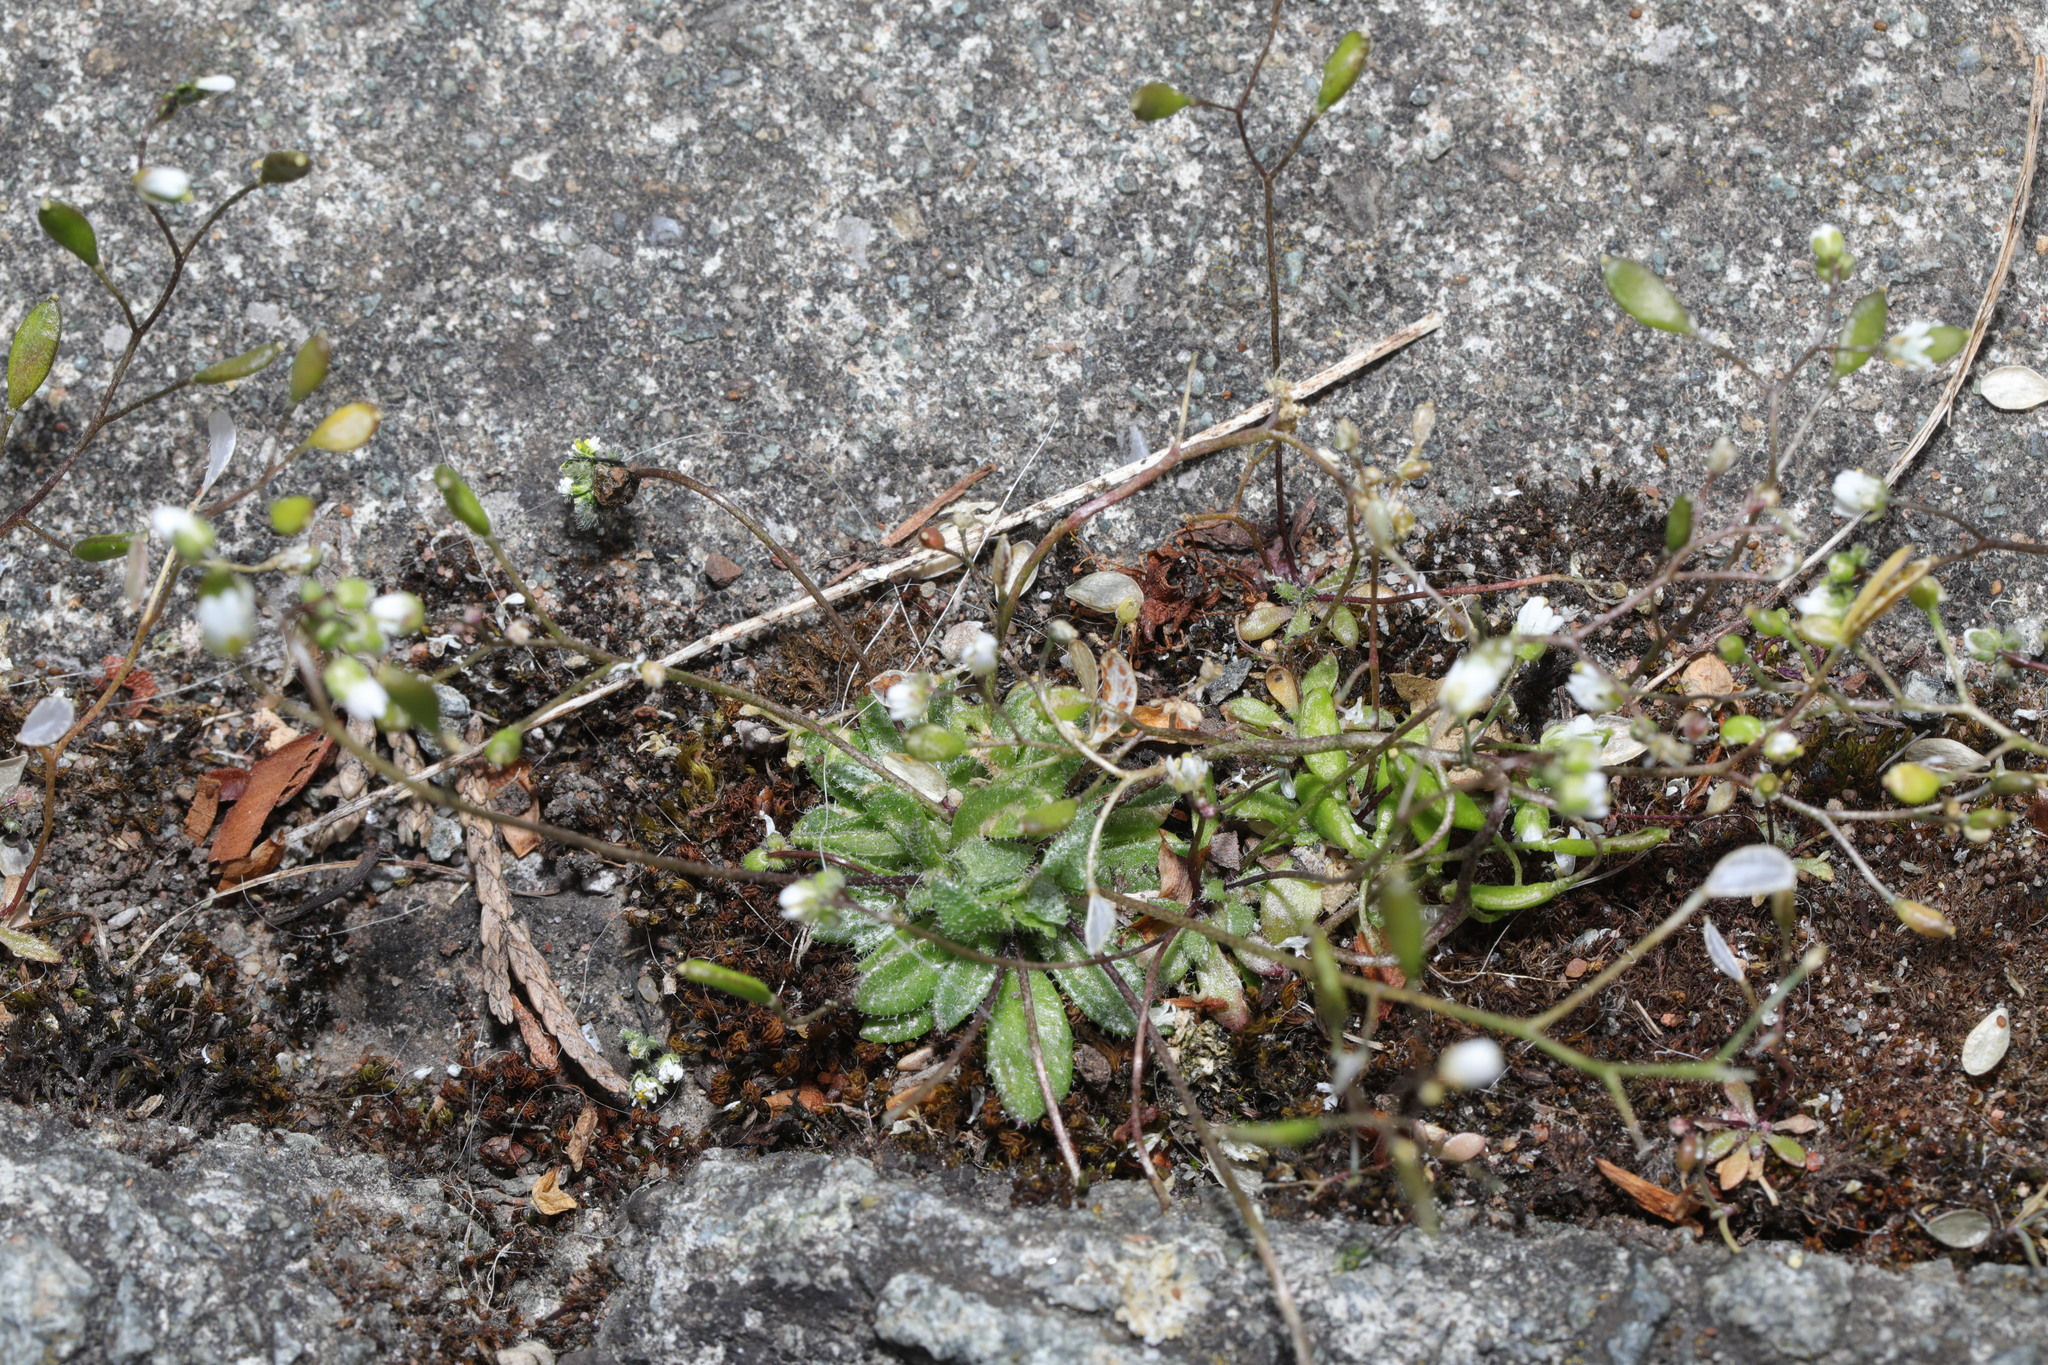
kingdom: Plantae
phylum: Tracheophyta
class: Magnoliopsida
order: Brassicales
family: Brassicaceae
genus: Draba
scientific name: Draba verna
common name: Spring draba
